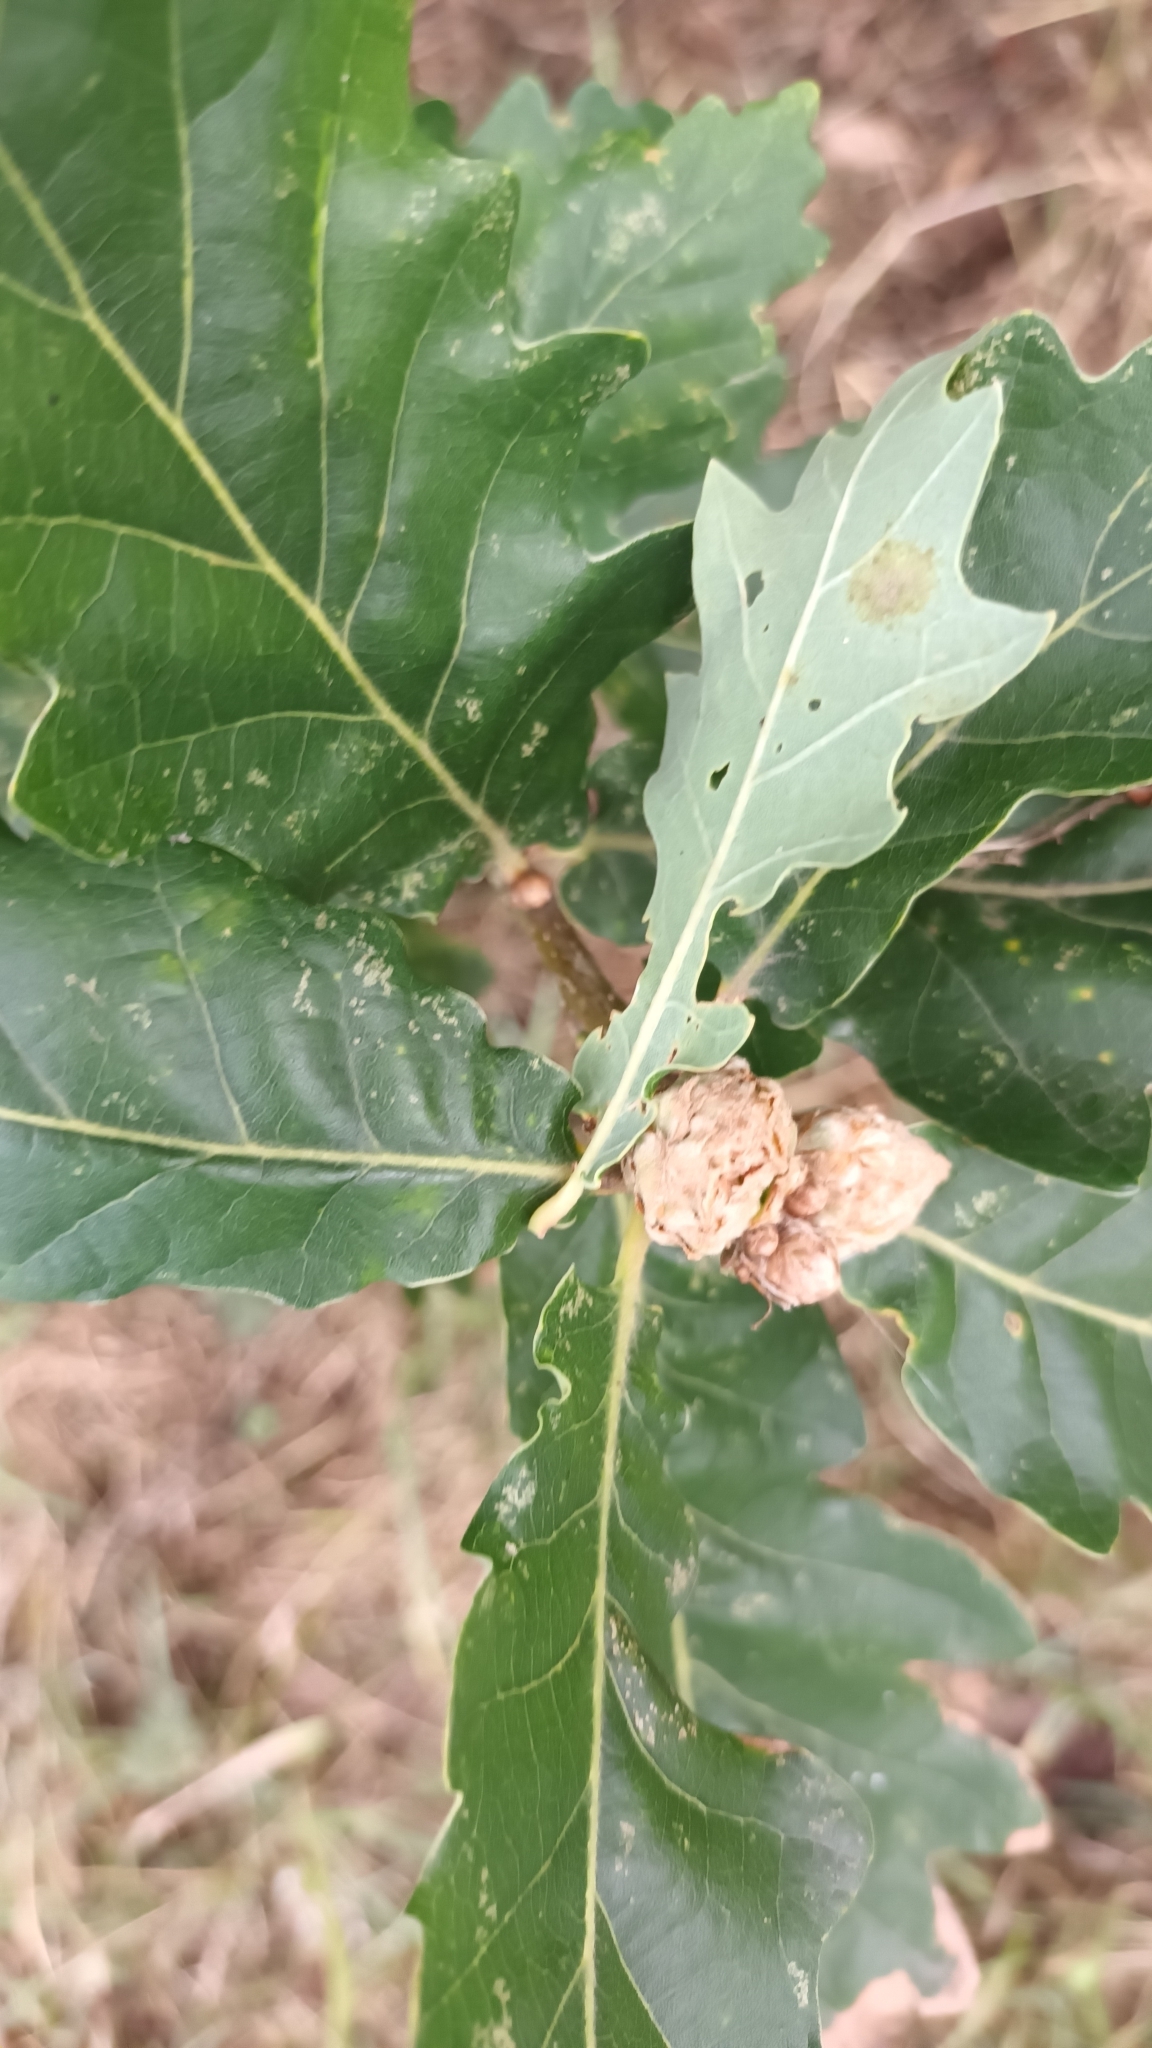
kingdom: Animalia
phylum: Arthropoda
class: Insecta
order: Hymenoptera
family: Cynipidae
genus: Andricus
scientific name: Andricus foecundatrix
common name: Artichoke gall
